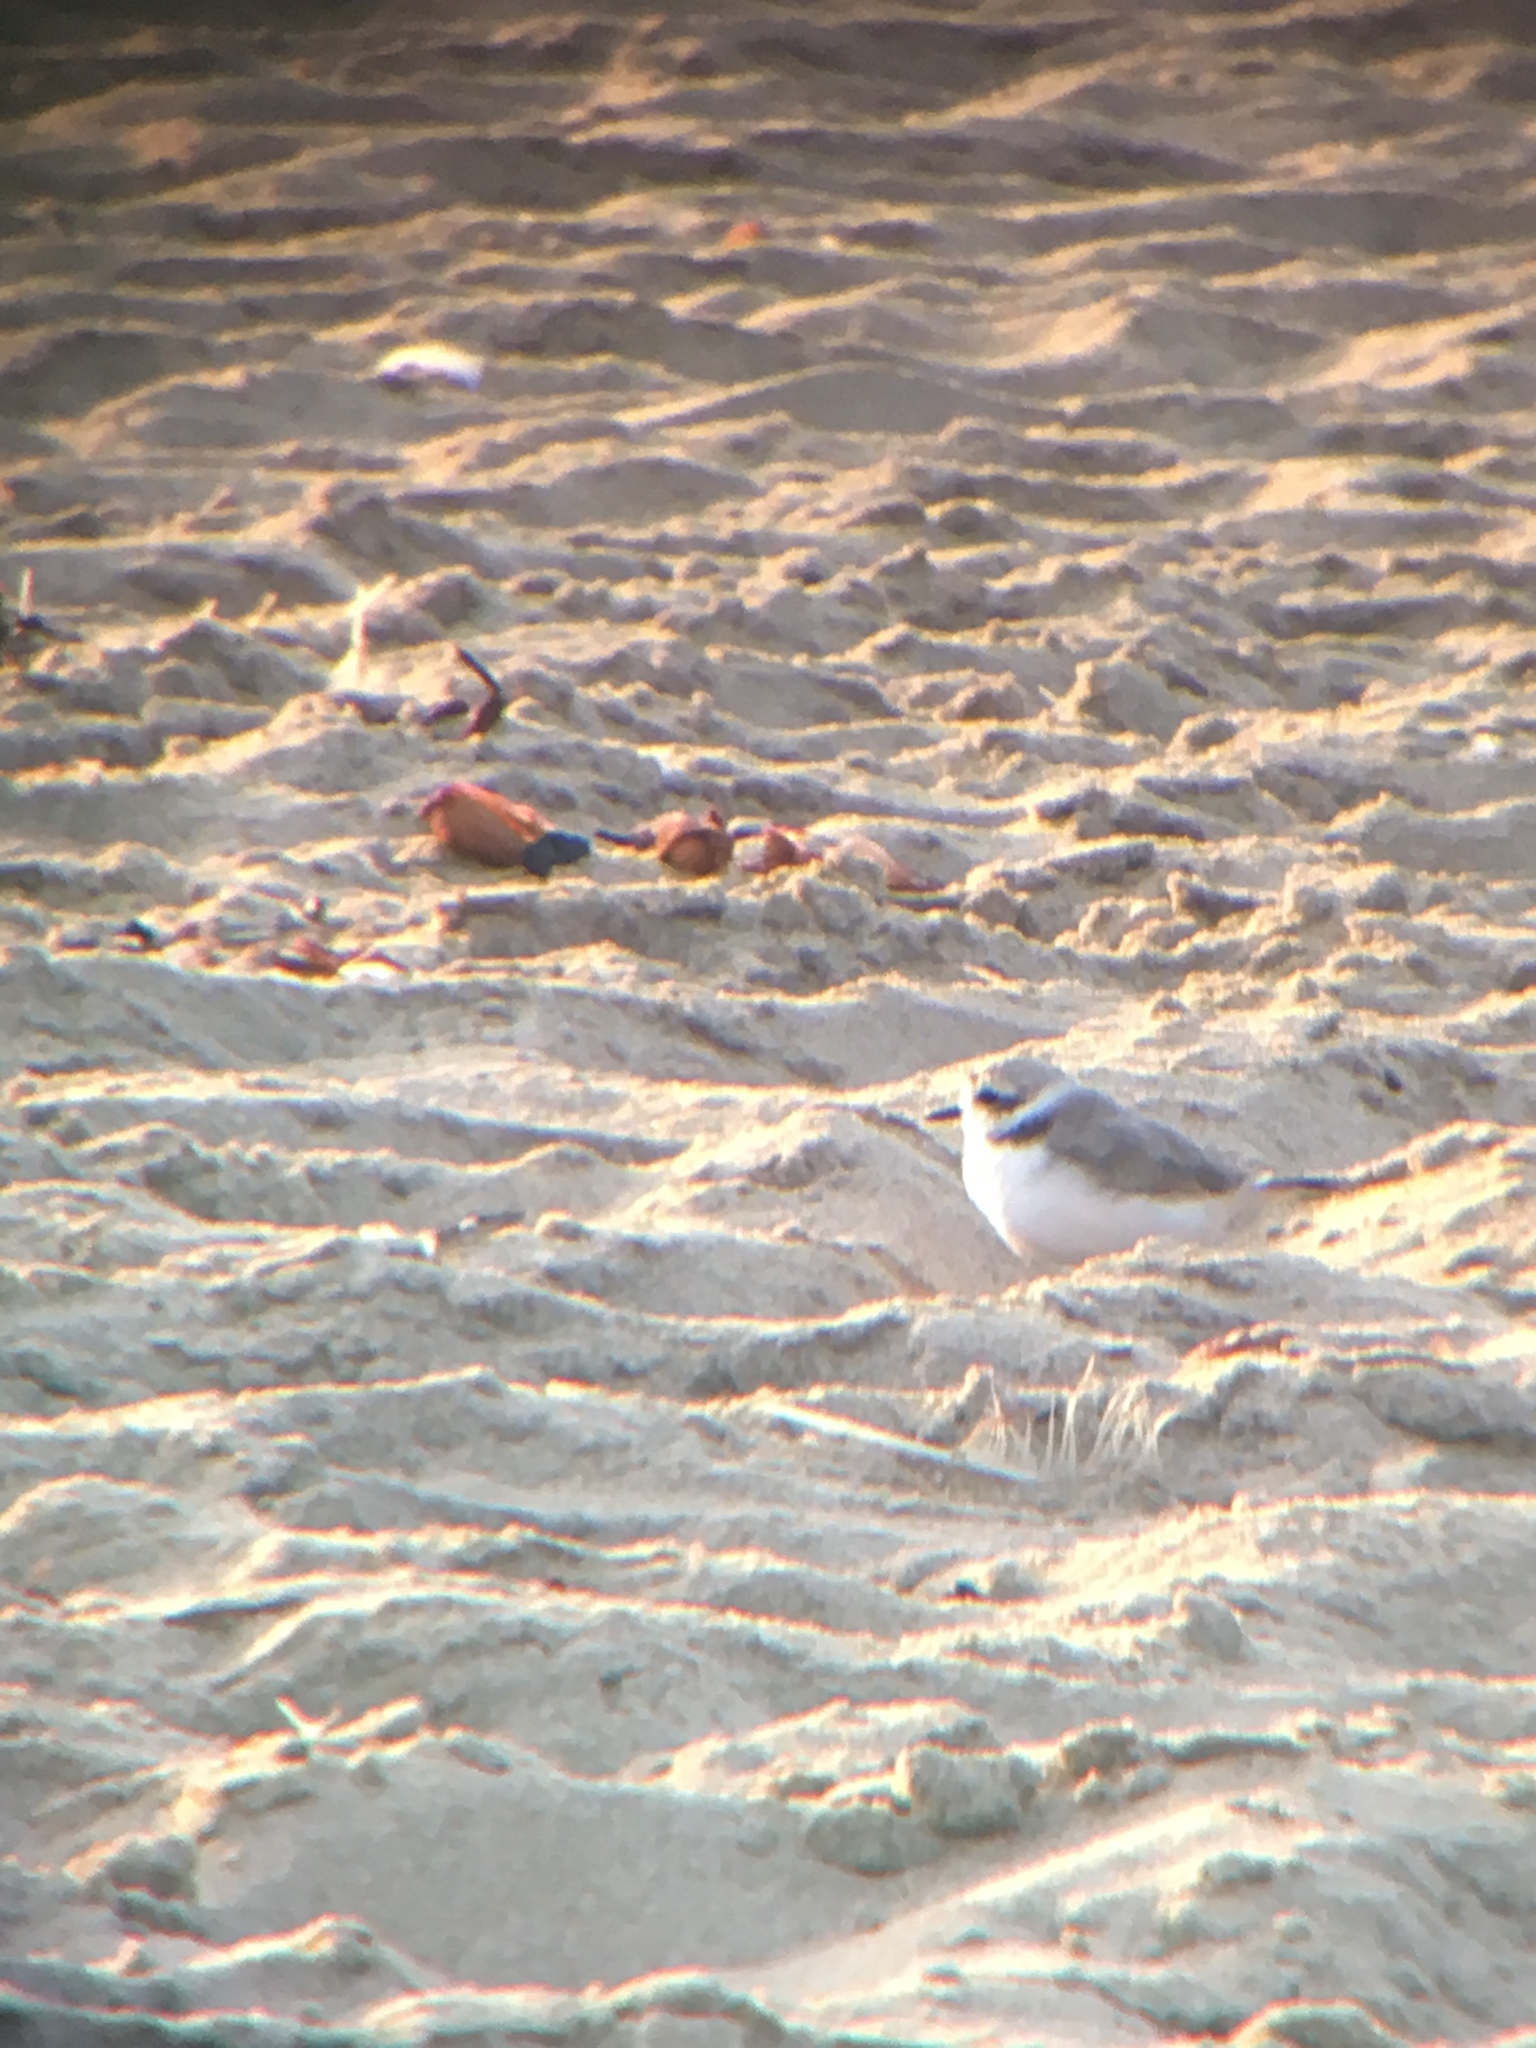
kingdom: Animalia
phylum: Chordata
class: Aves
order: Charadriiformes
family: Charadriidae
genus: Anarhynchus
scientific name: Anarhynchus
